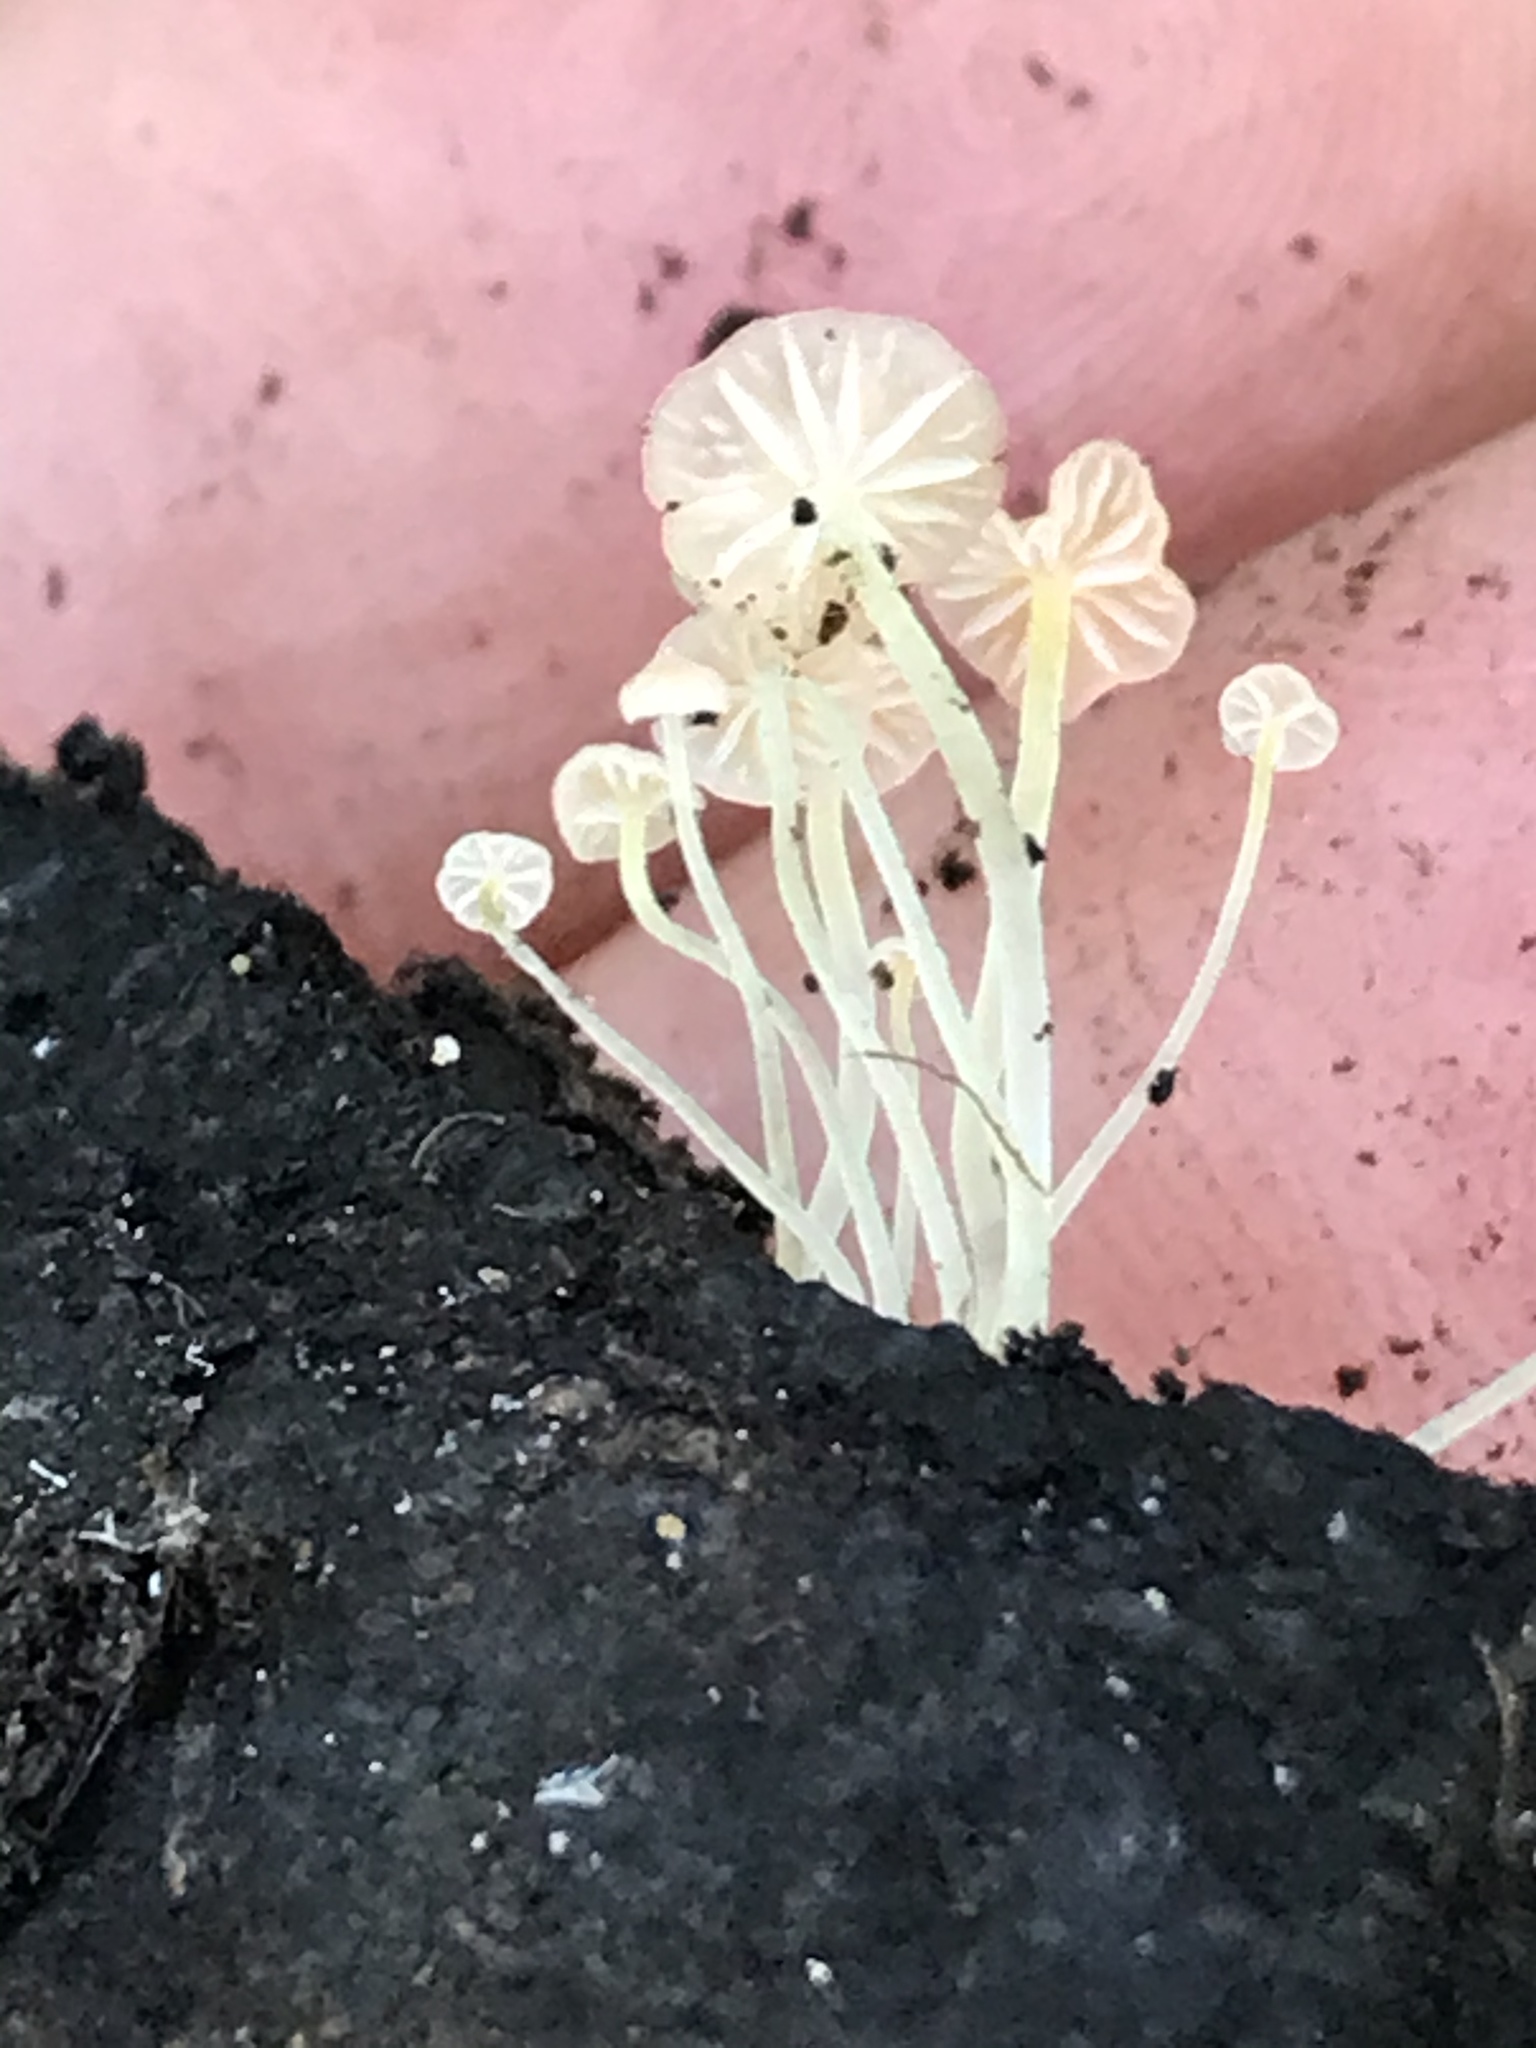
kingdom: Fungi
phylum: Basidiomycota
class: Agaricomycetes
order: Agaricales
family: Mycenaceae
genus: Mycena
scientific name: Mycena acicula
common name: Orange bonnet
